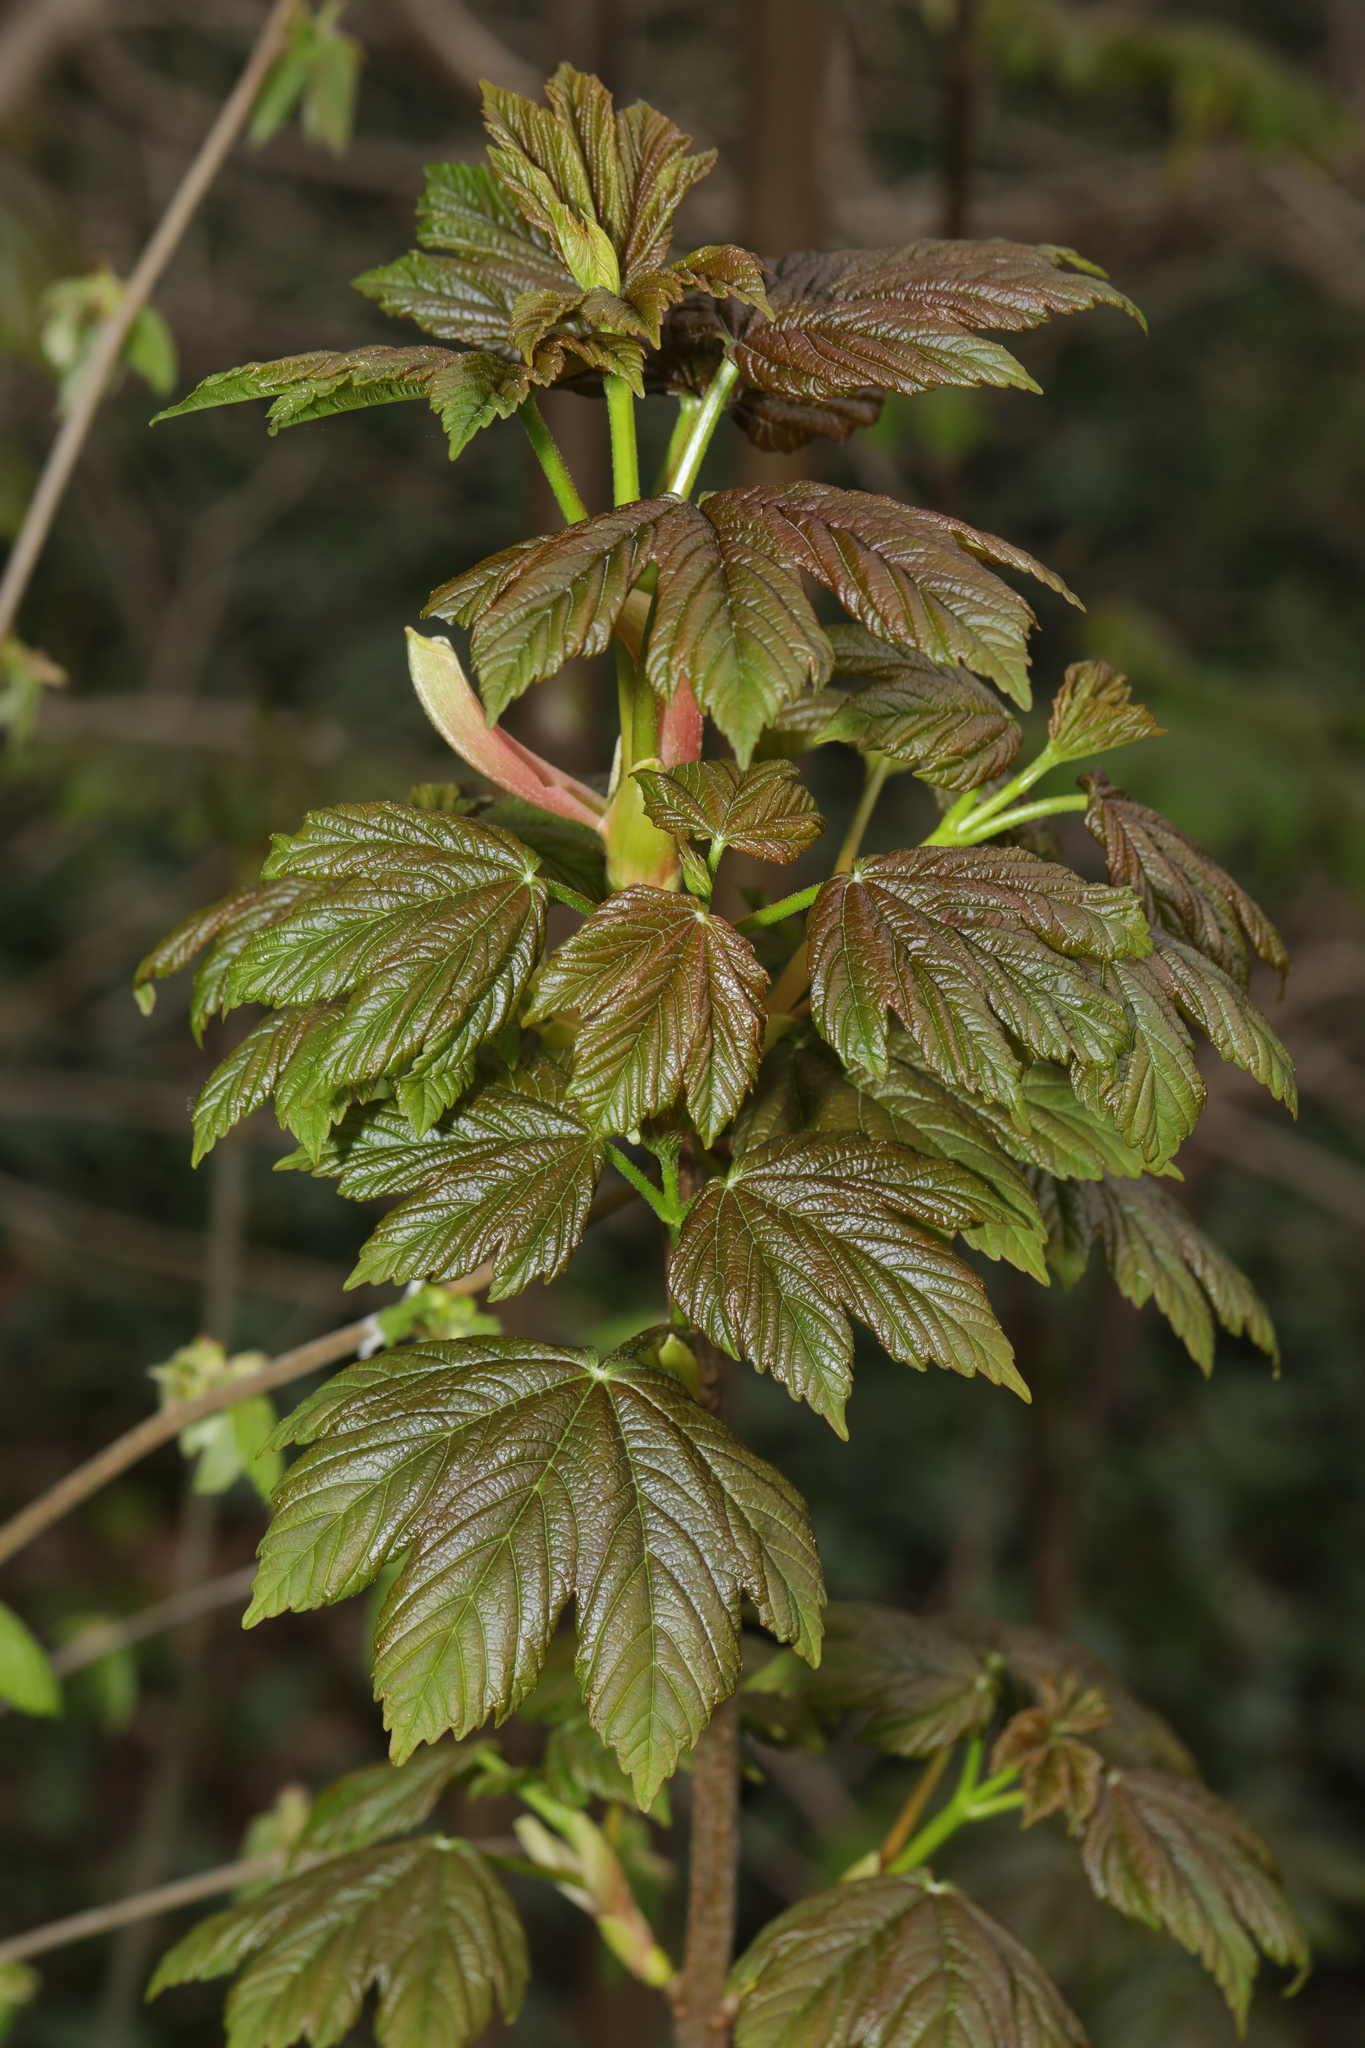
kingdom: Plantae
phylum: Tracheophyta
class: Magnoliopsida
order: Sapindales
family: Sapindaceae
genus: Acer
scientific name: Acer pseudoplatanus
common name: Sycamore
